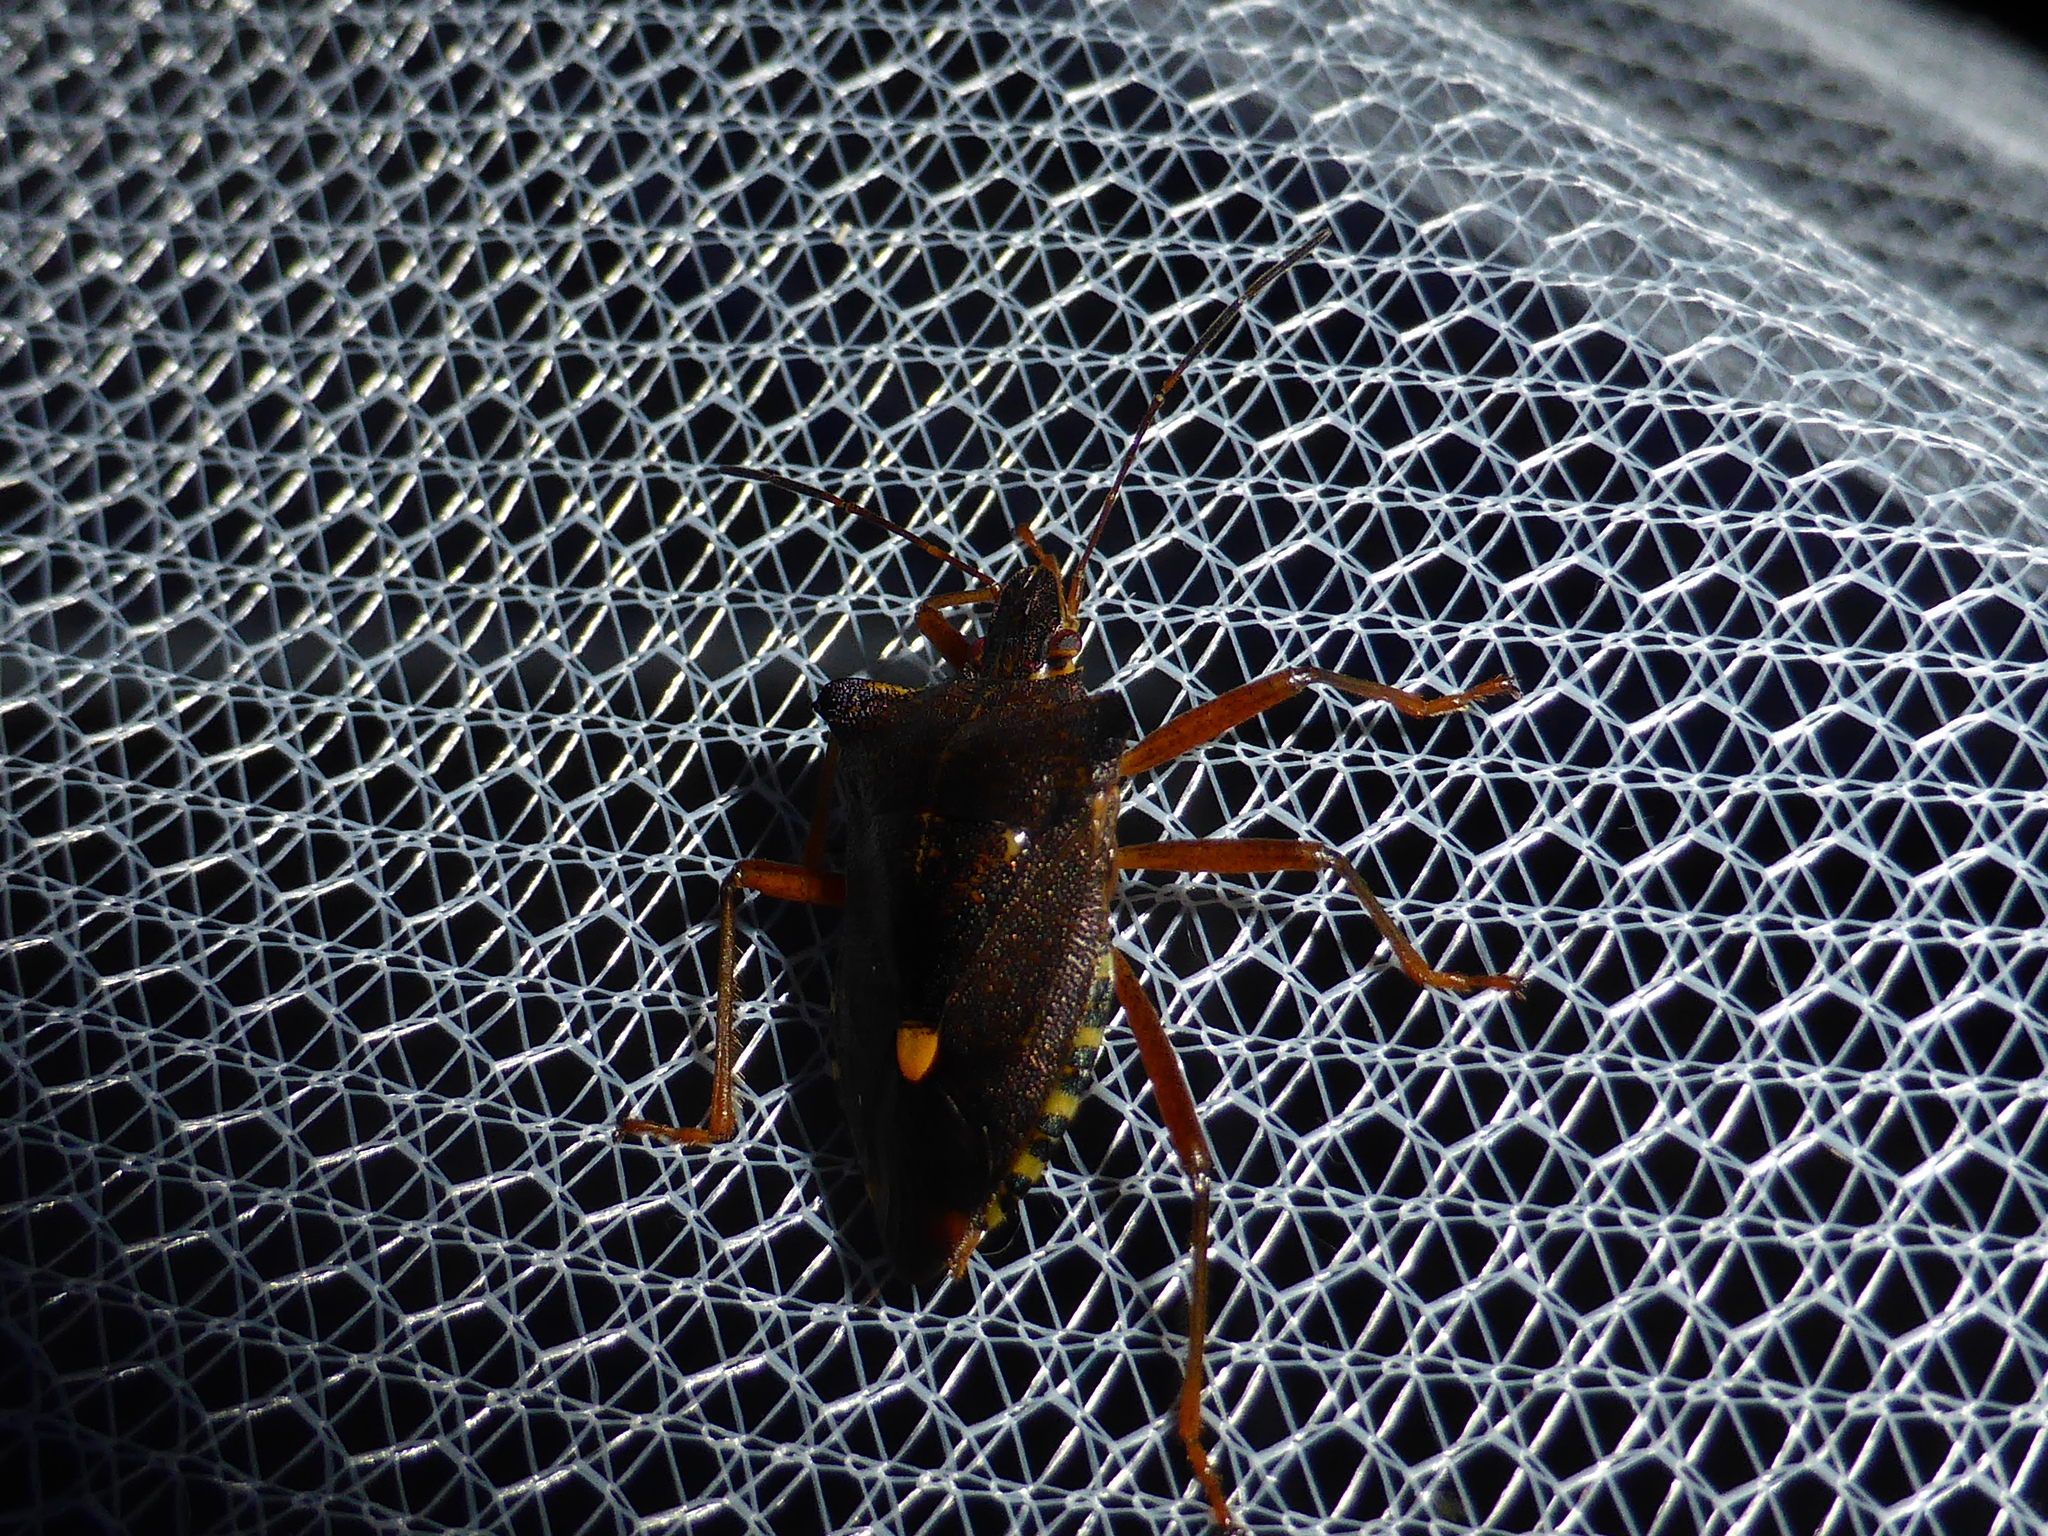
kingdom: Animalia
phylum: Arthropoda
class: Insecta
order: Hemiptera
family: Pentatomidae
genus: Pentatoma
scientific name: Pentatoma rufipes
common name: Forest bug
